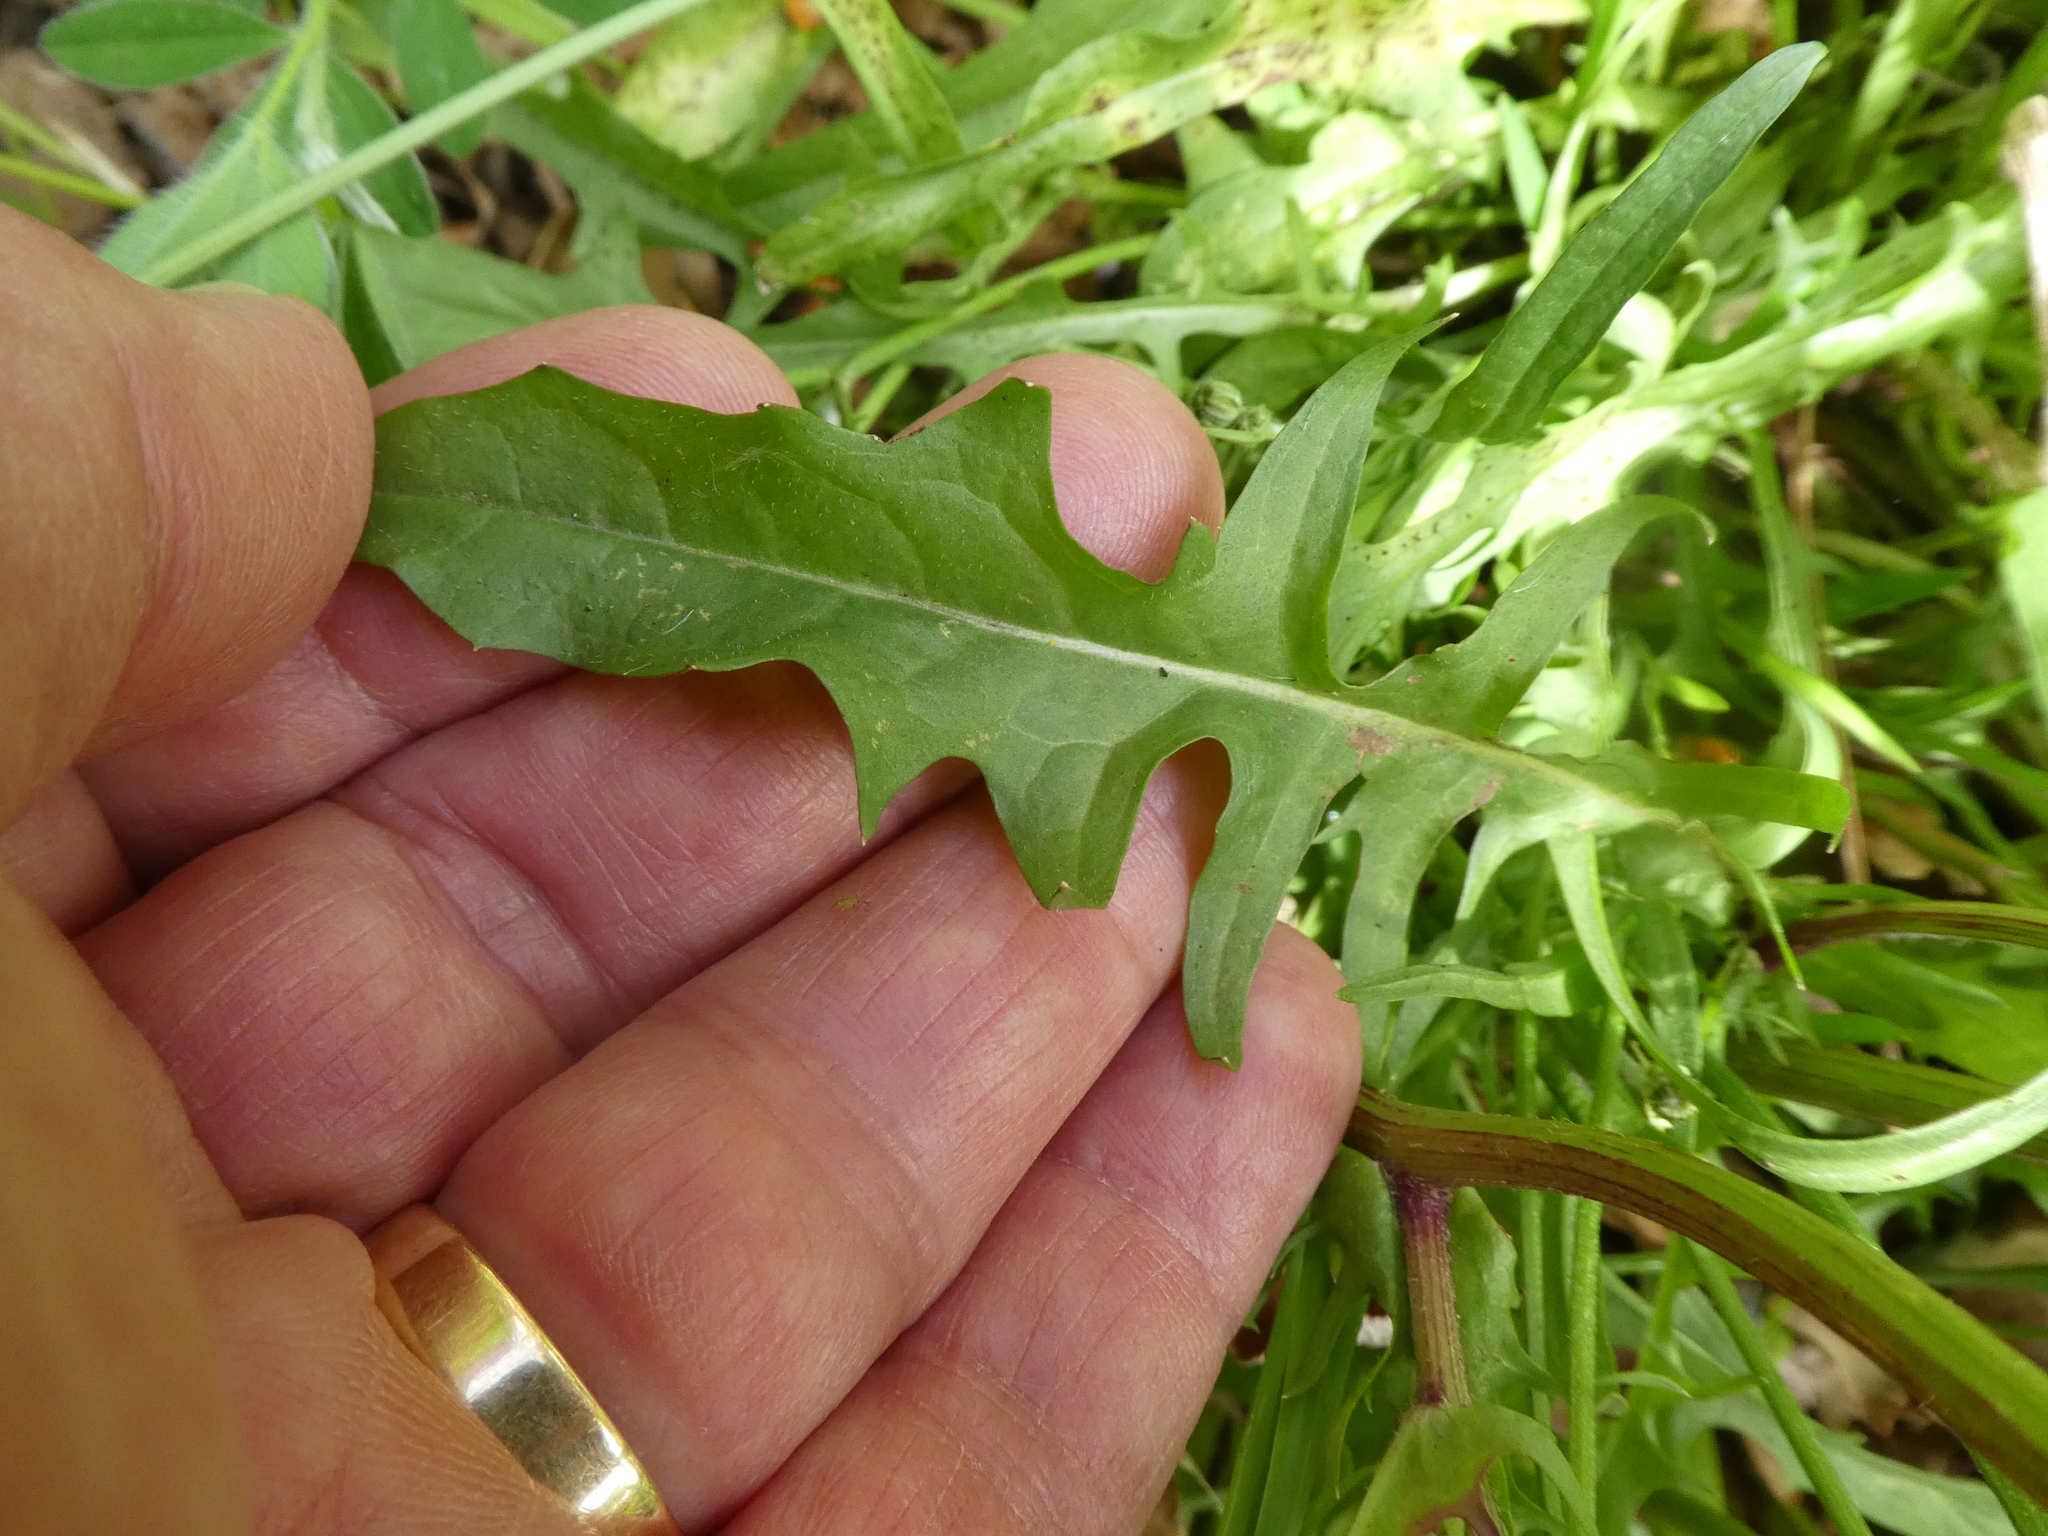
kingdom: Plantae
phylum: Tracheophyta
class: Magnoliopsida
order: Asterales
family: Asteraceae
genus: Crepis
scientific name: Crepis capillaris
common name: Smooth hawksbeard
